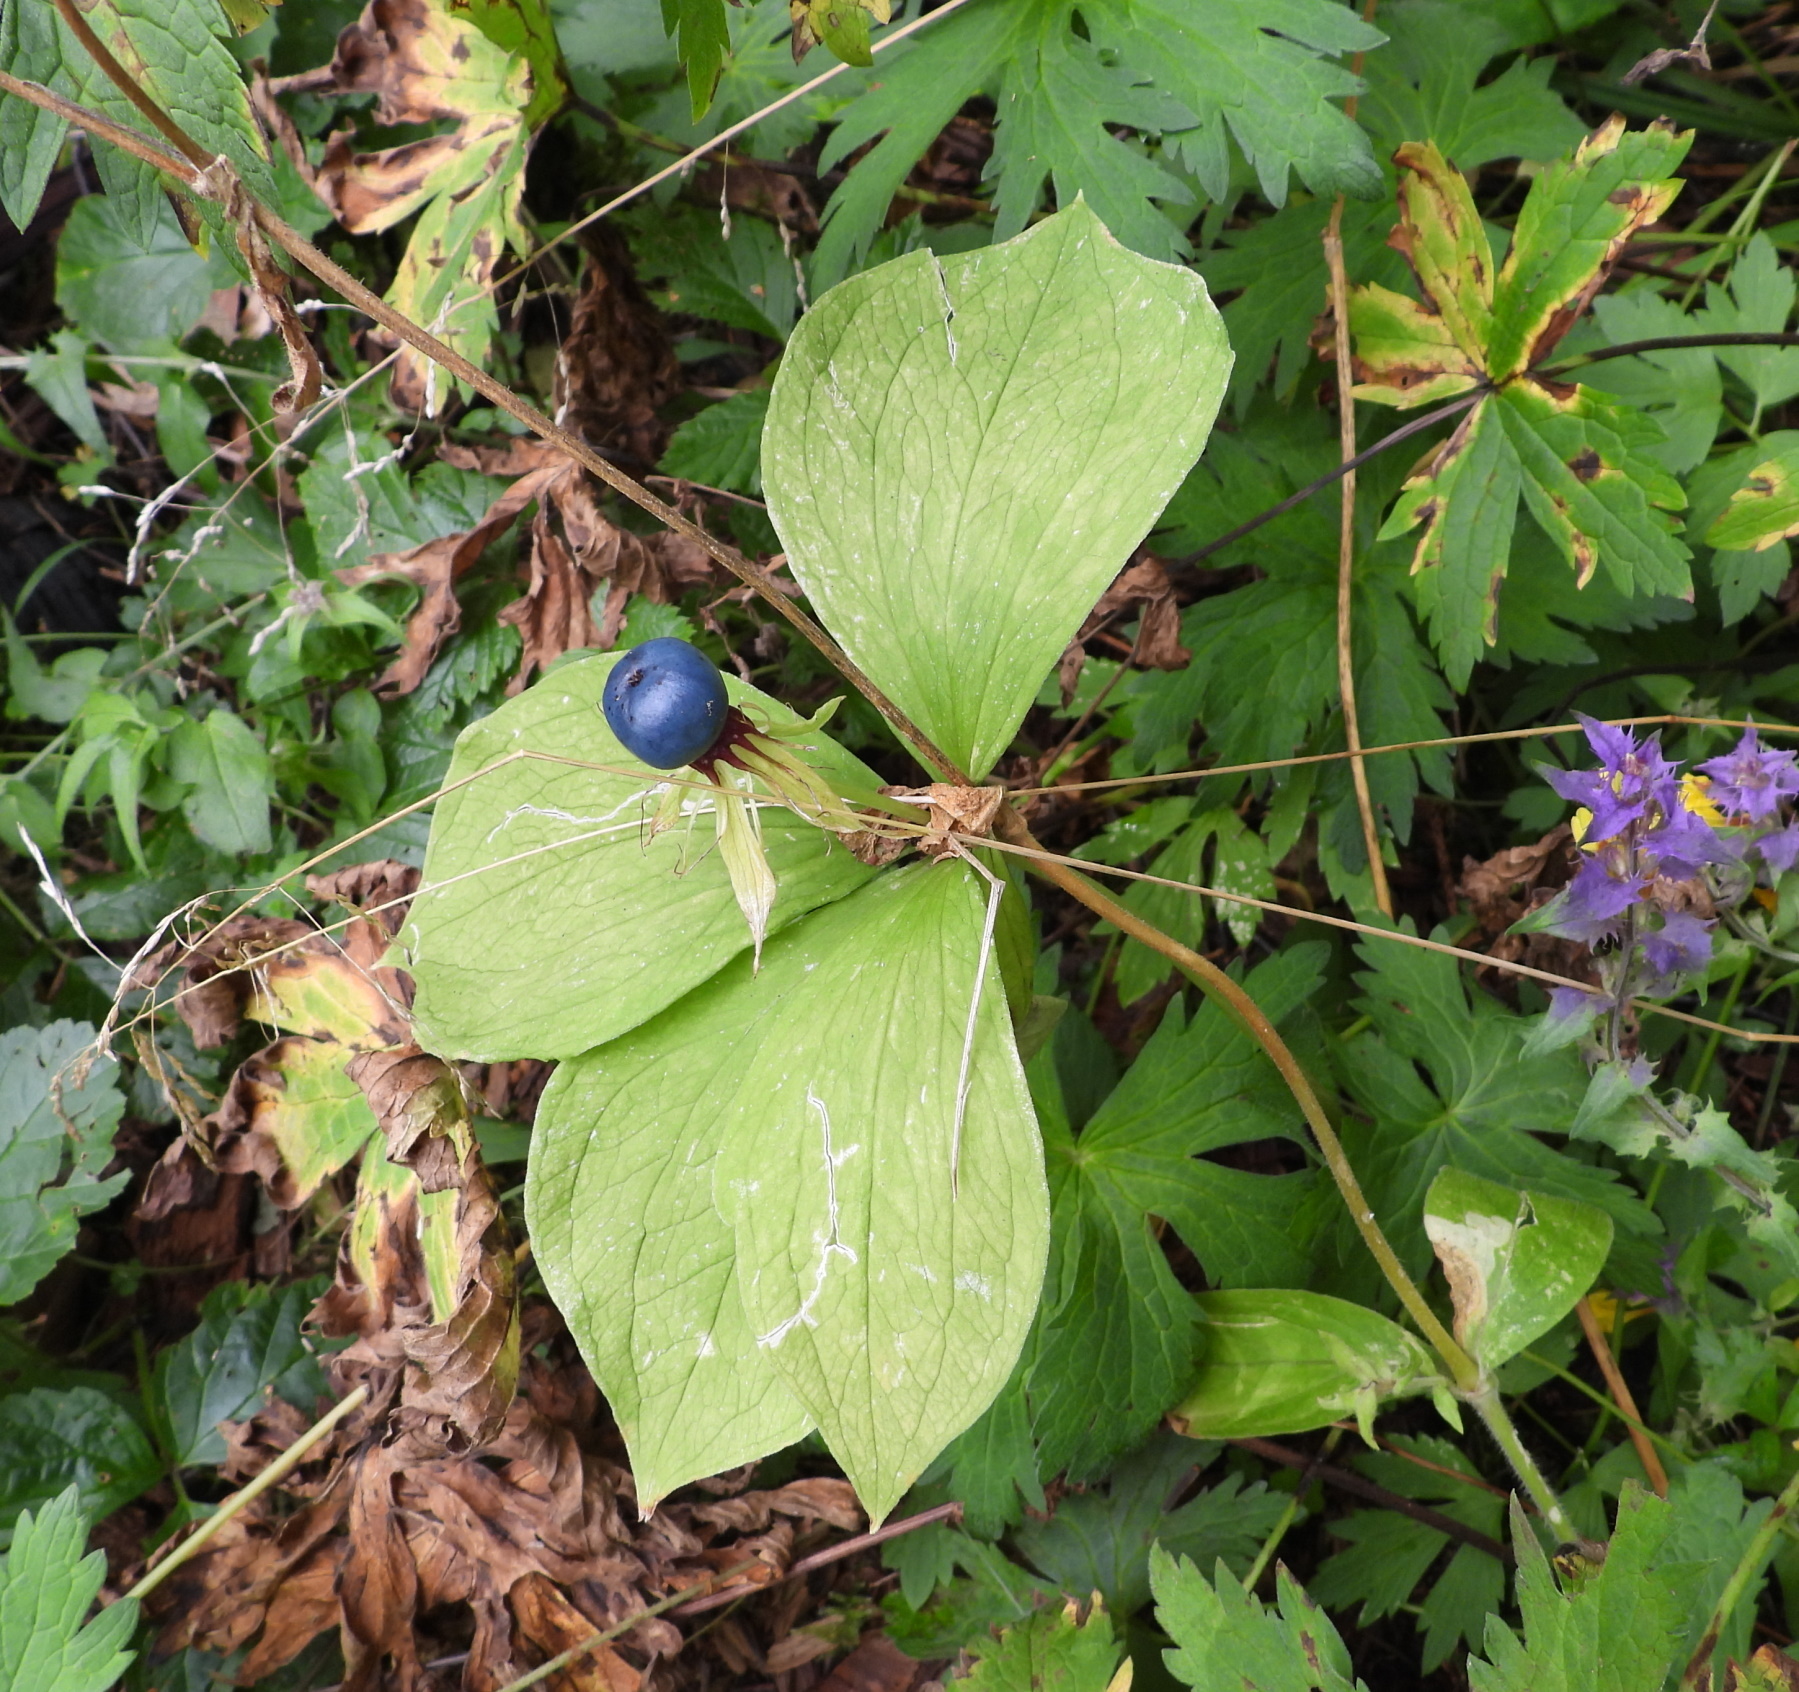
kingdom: Plantae
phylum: Tracheophyta
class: Liliopsida
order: Liliales
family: Melanthiaceae
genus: Paris
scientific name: Paris quadrifolia
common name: Herb-paris
